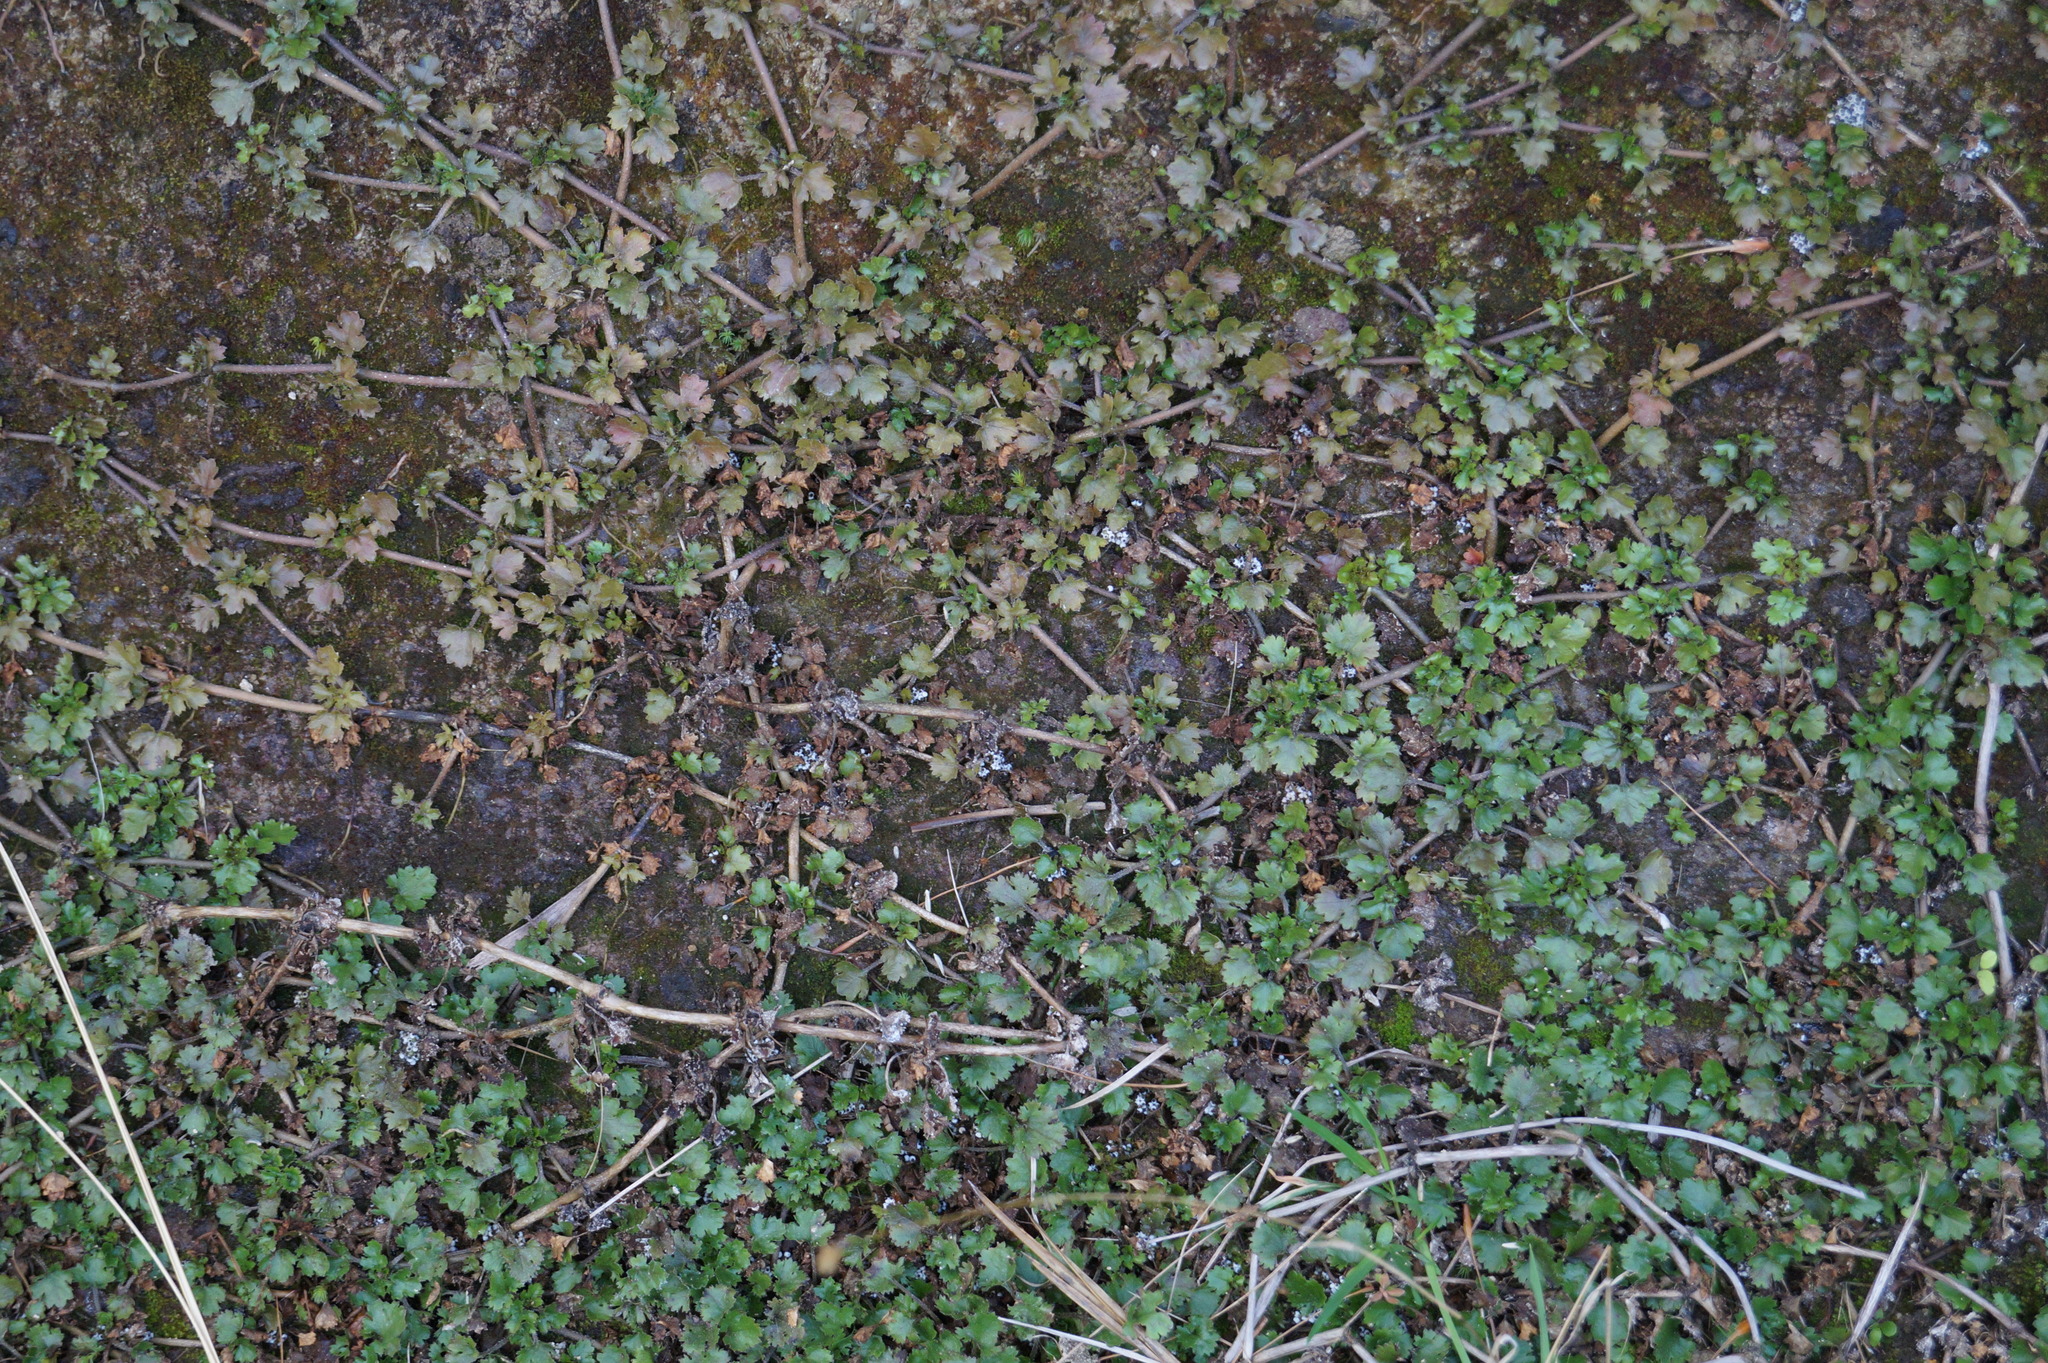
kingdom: Plantae
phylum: Tracheophyta
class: Magnoliopsida
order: Gunnerales
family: Gunneraceae
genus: Gunnera
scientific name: Gunnera monoica
